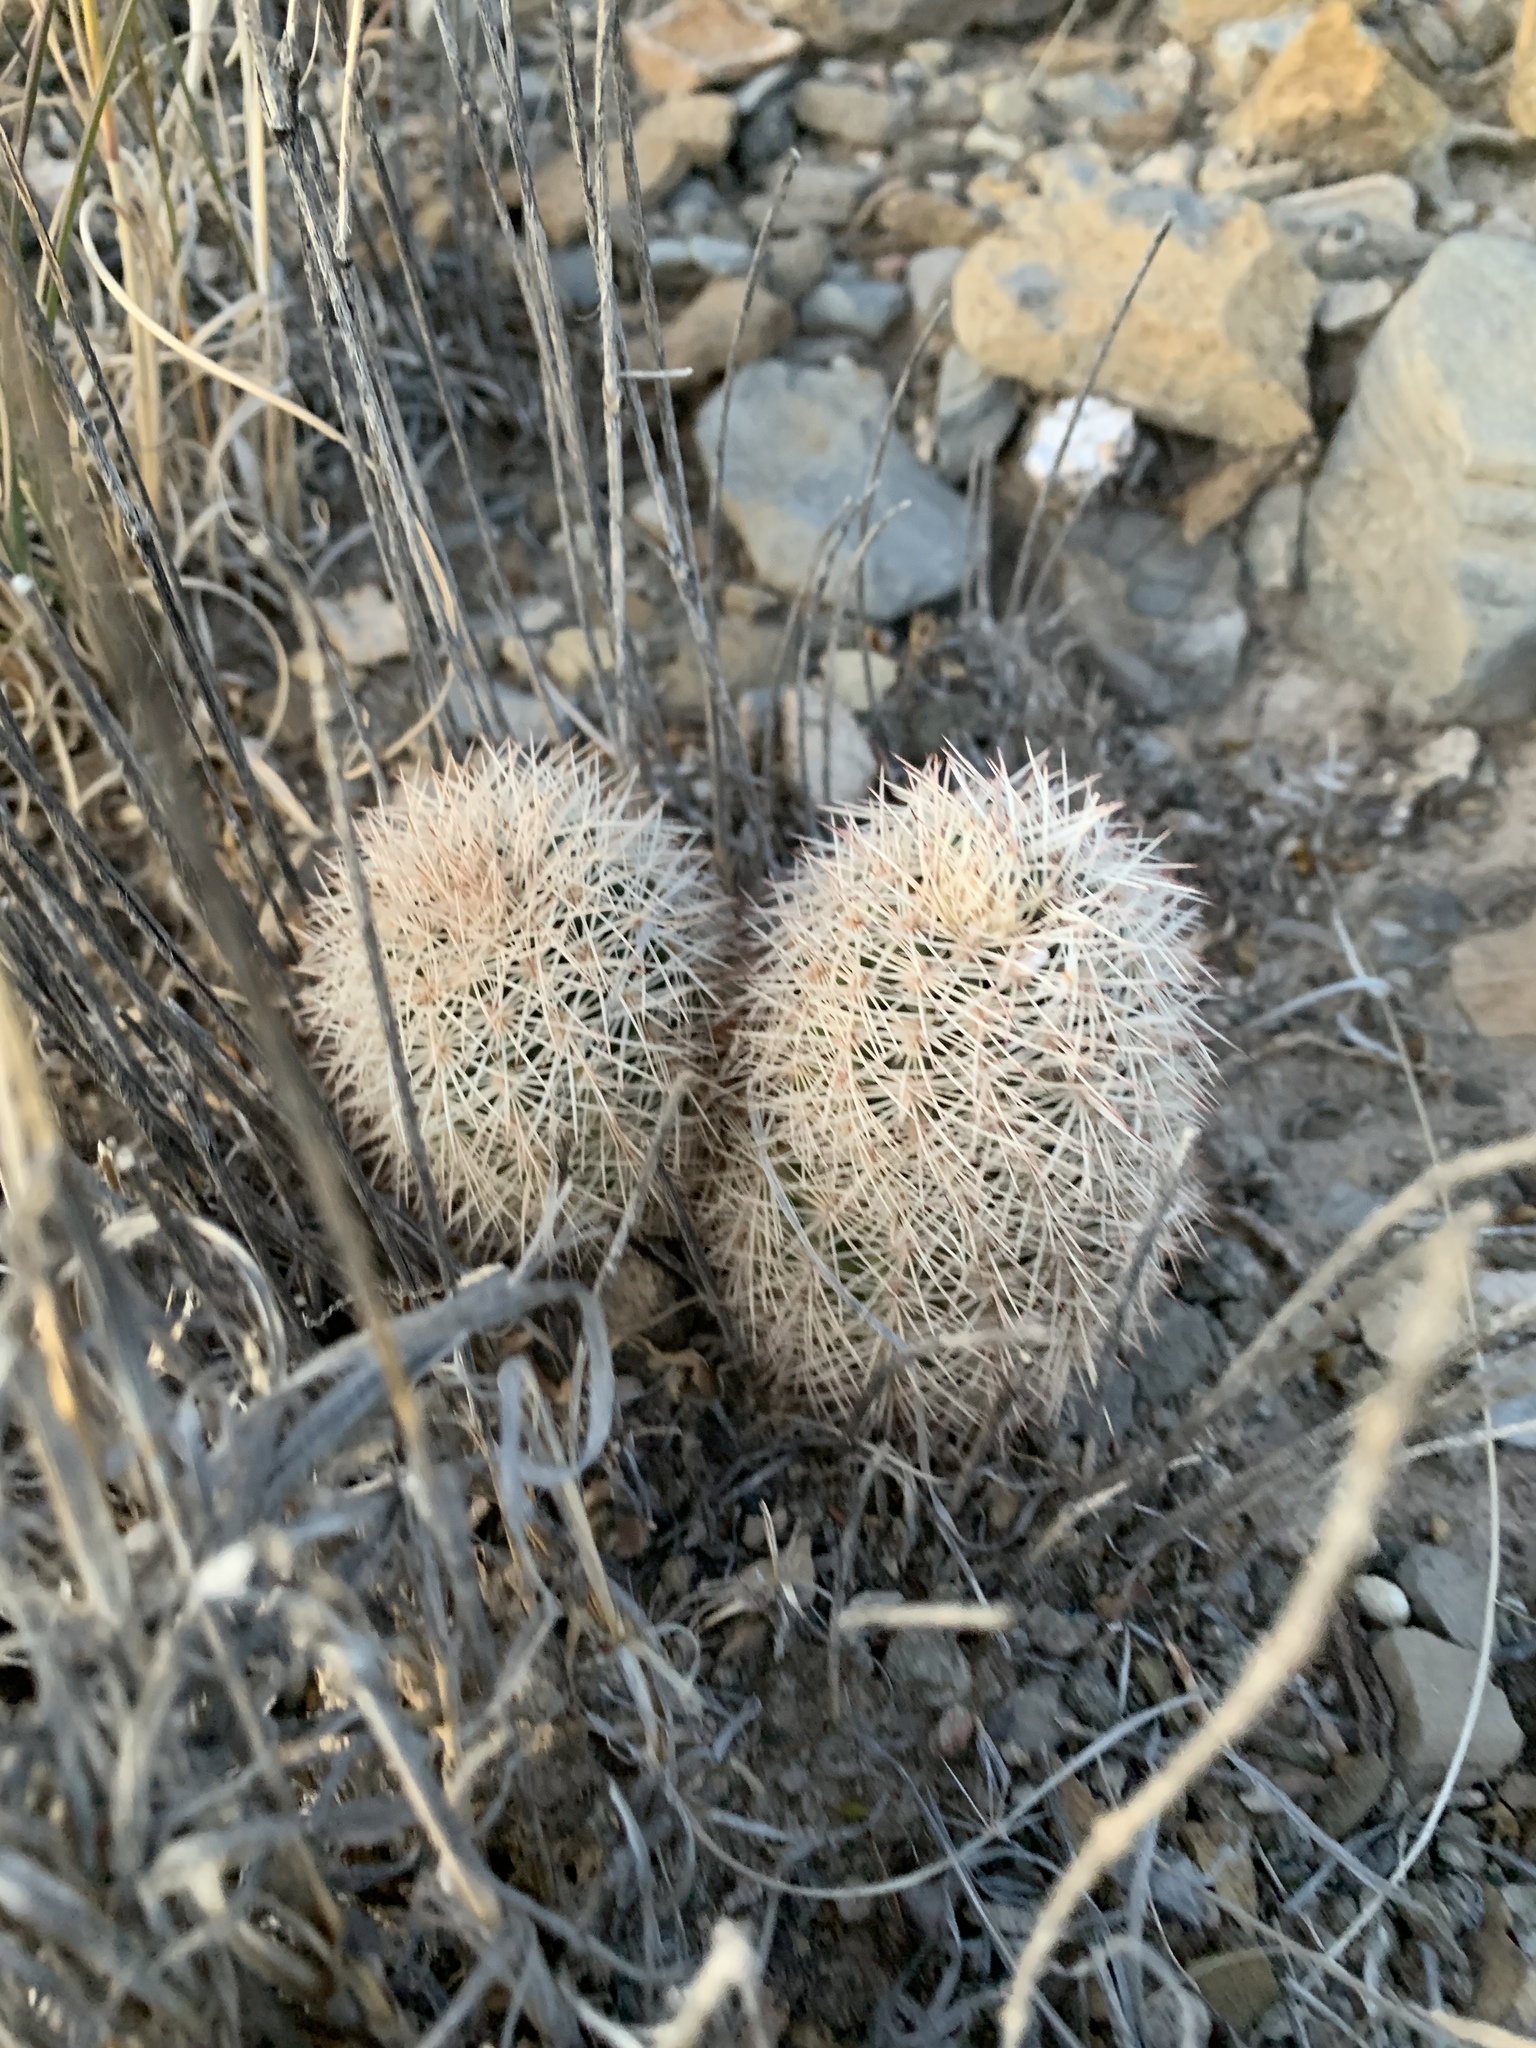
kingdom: Plantae
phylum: Tracheophyta
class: Magnoliopsida
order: Caryophyllales
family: Cactaceae
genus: Echinocereus
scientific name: Echinocereus dasyacanthus
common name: Spiny hedgehog cactus
